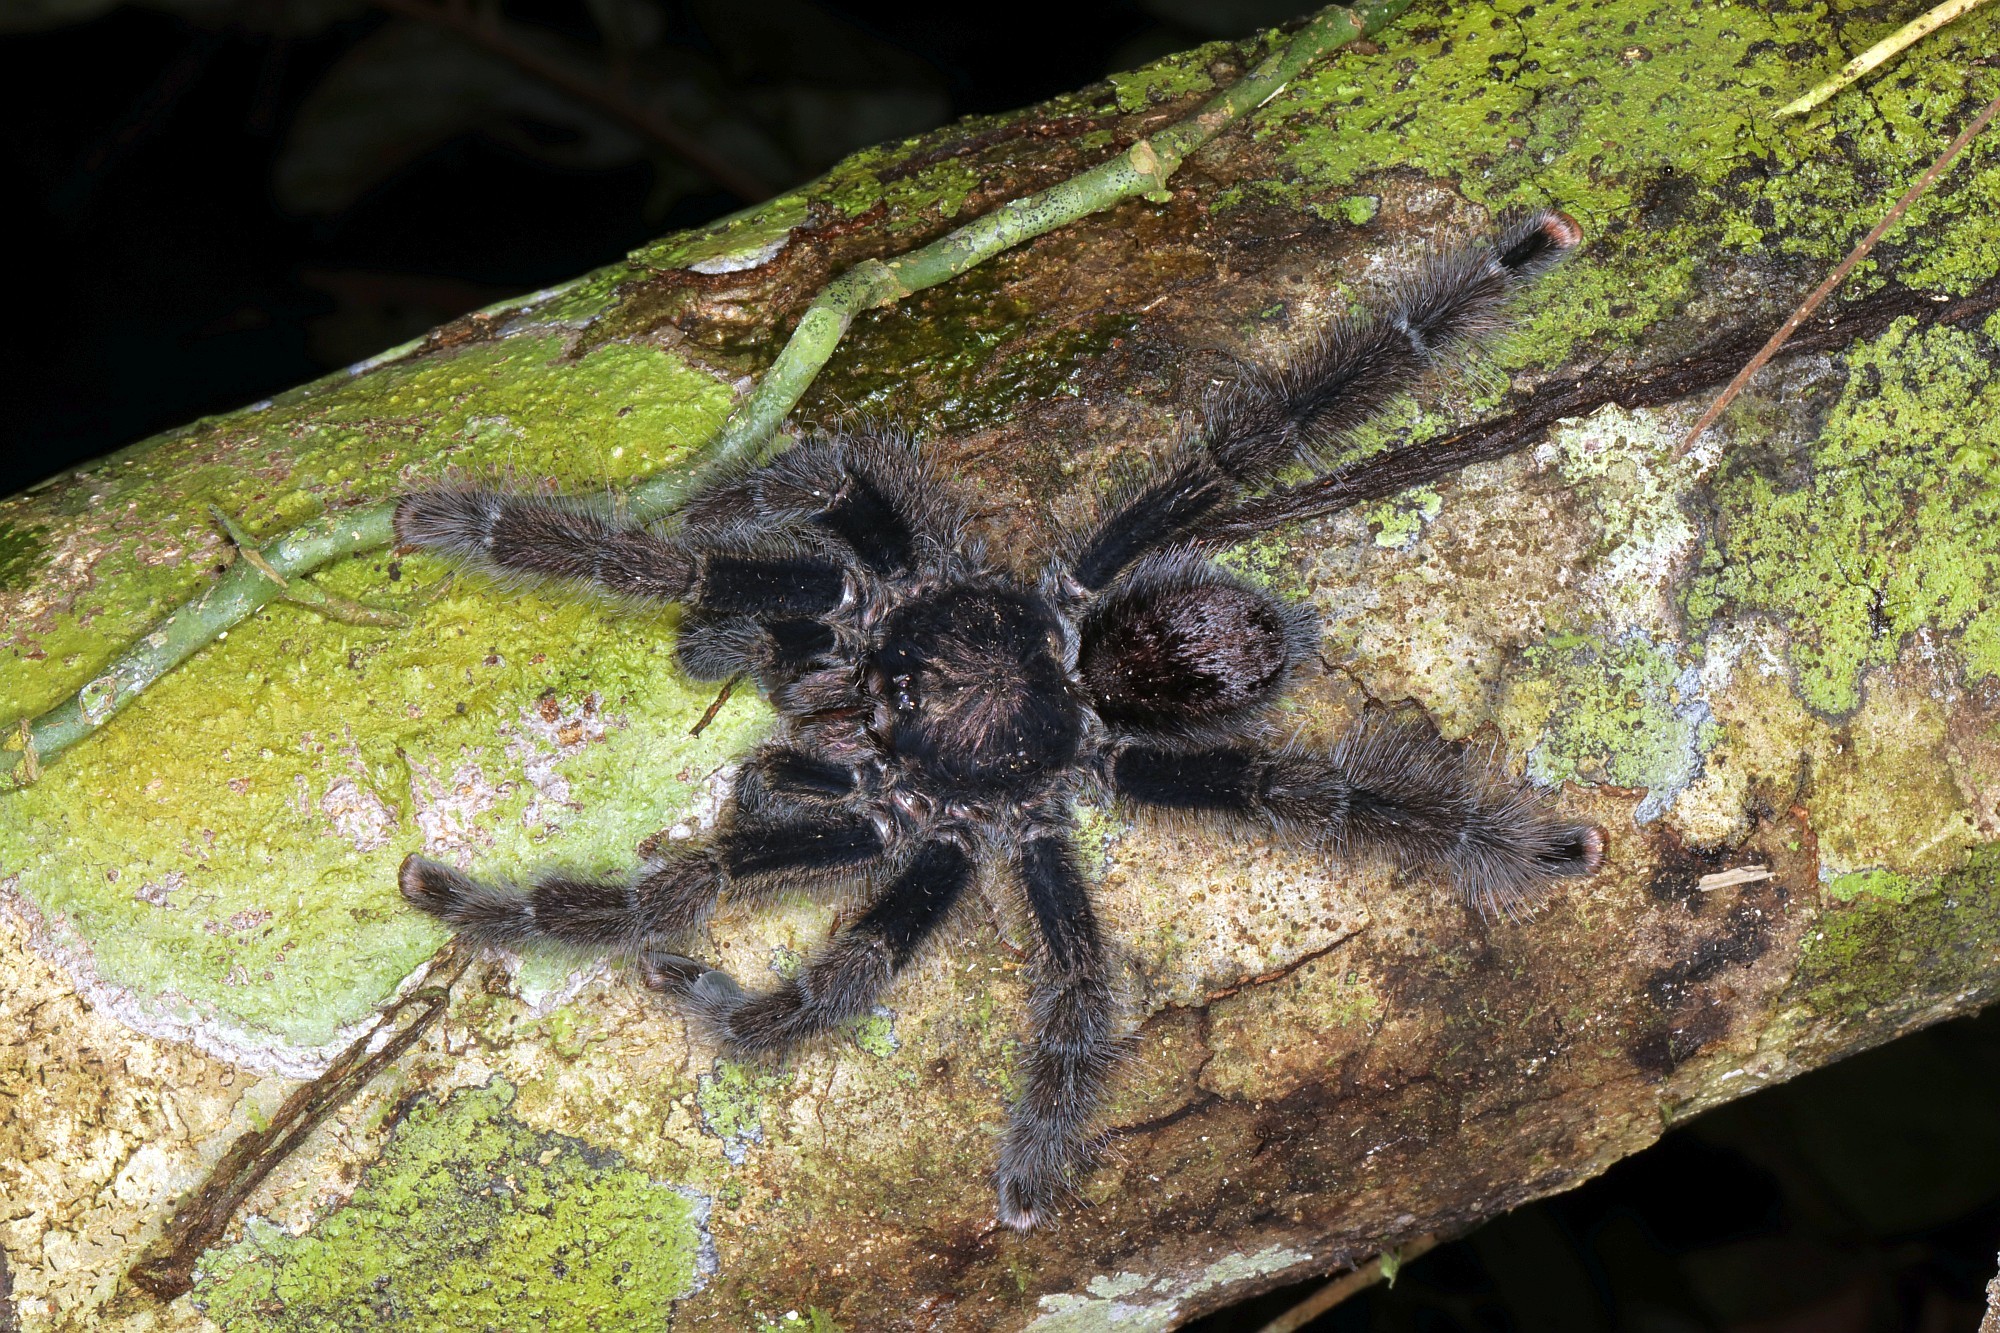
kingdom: Animalia
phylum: Arthropoda
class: Arachnida
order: Araneae
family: Theraphosidae
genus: Avicularia
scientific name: Avicularia juruensis
